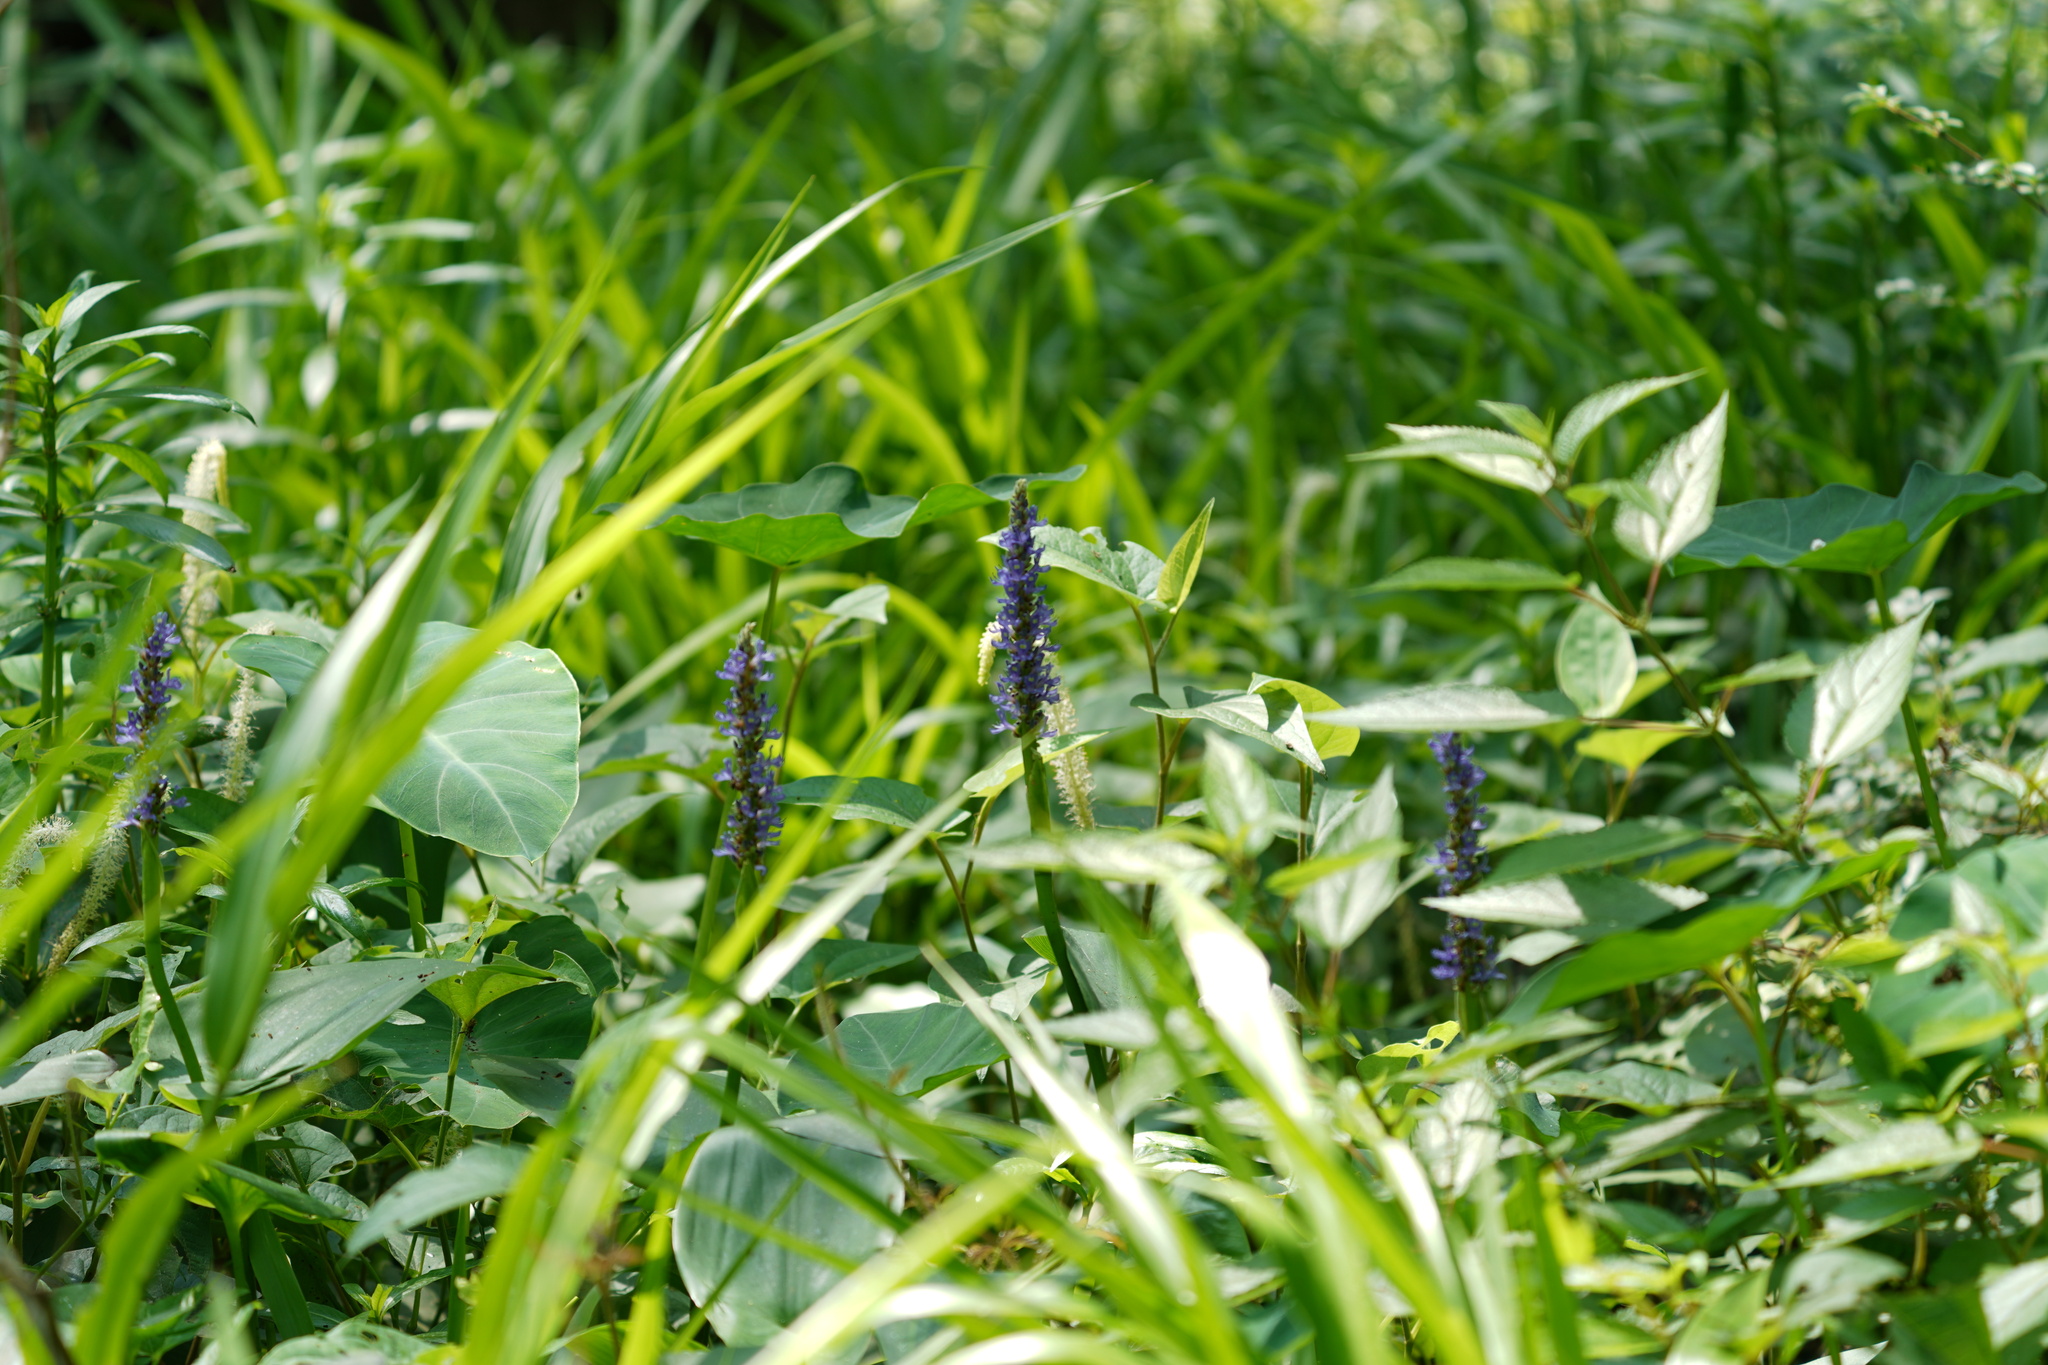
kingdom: Plantae
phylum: Tracheophyta
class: Liliopsida
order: Commelinales
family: Pontederiaceae
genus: Pontederia
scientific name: Pontederia cordata
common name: Pickerelweed
